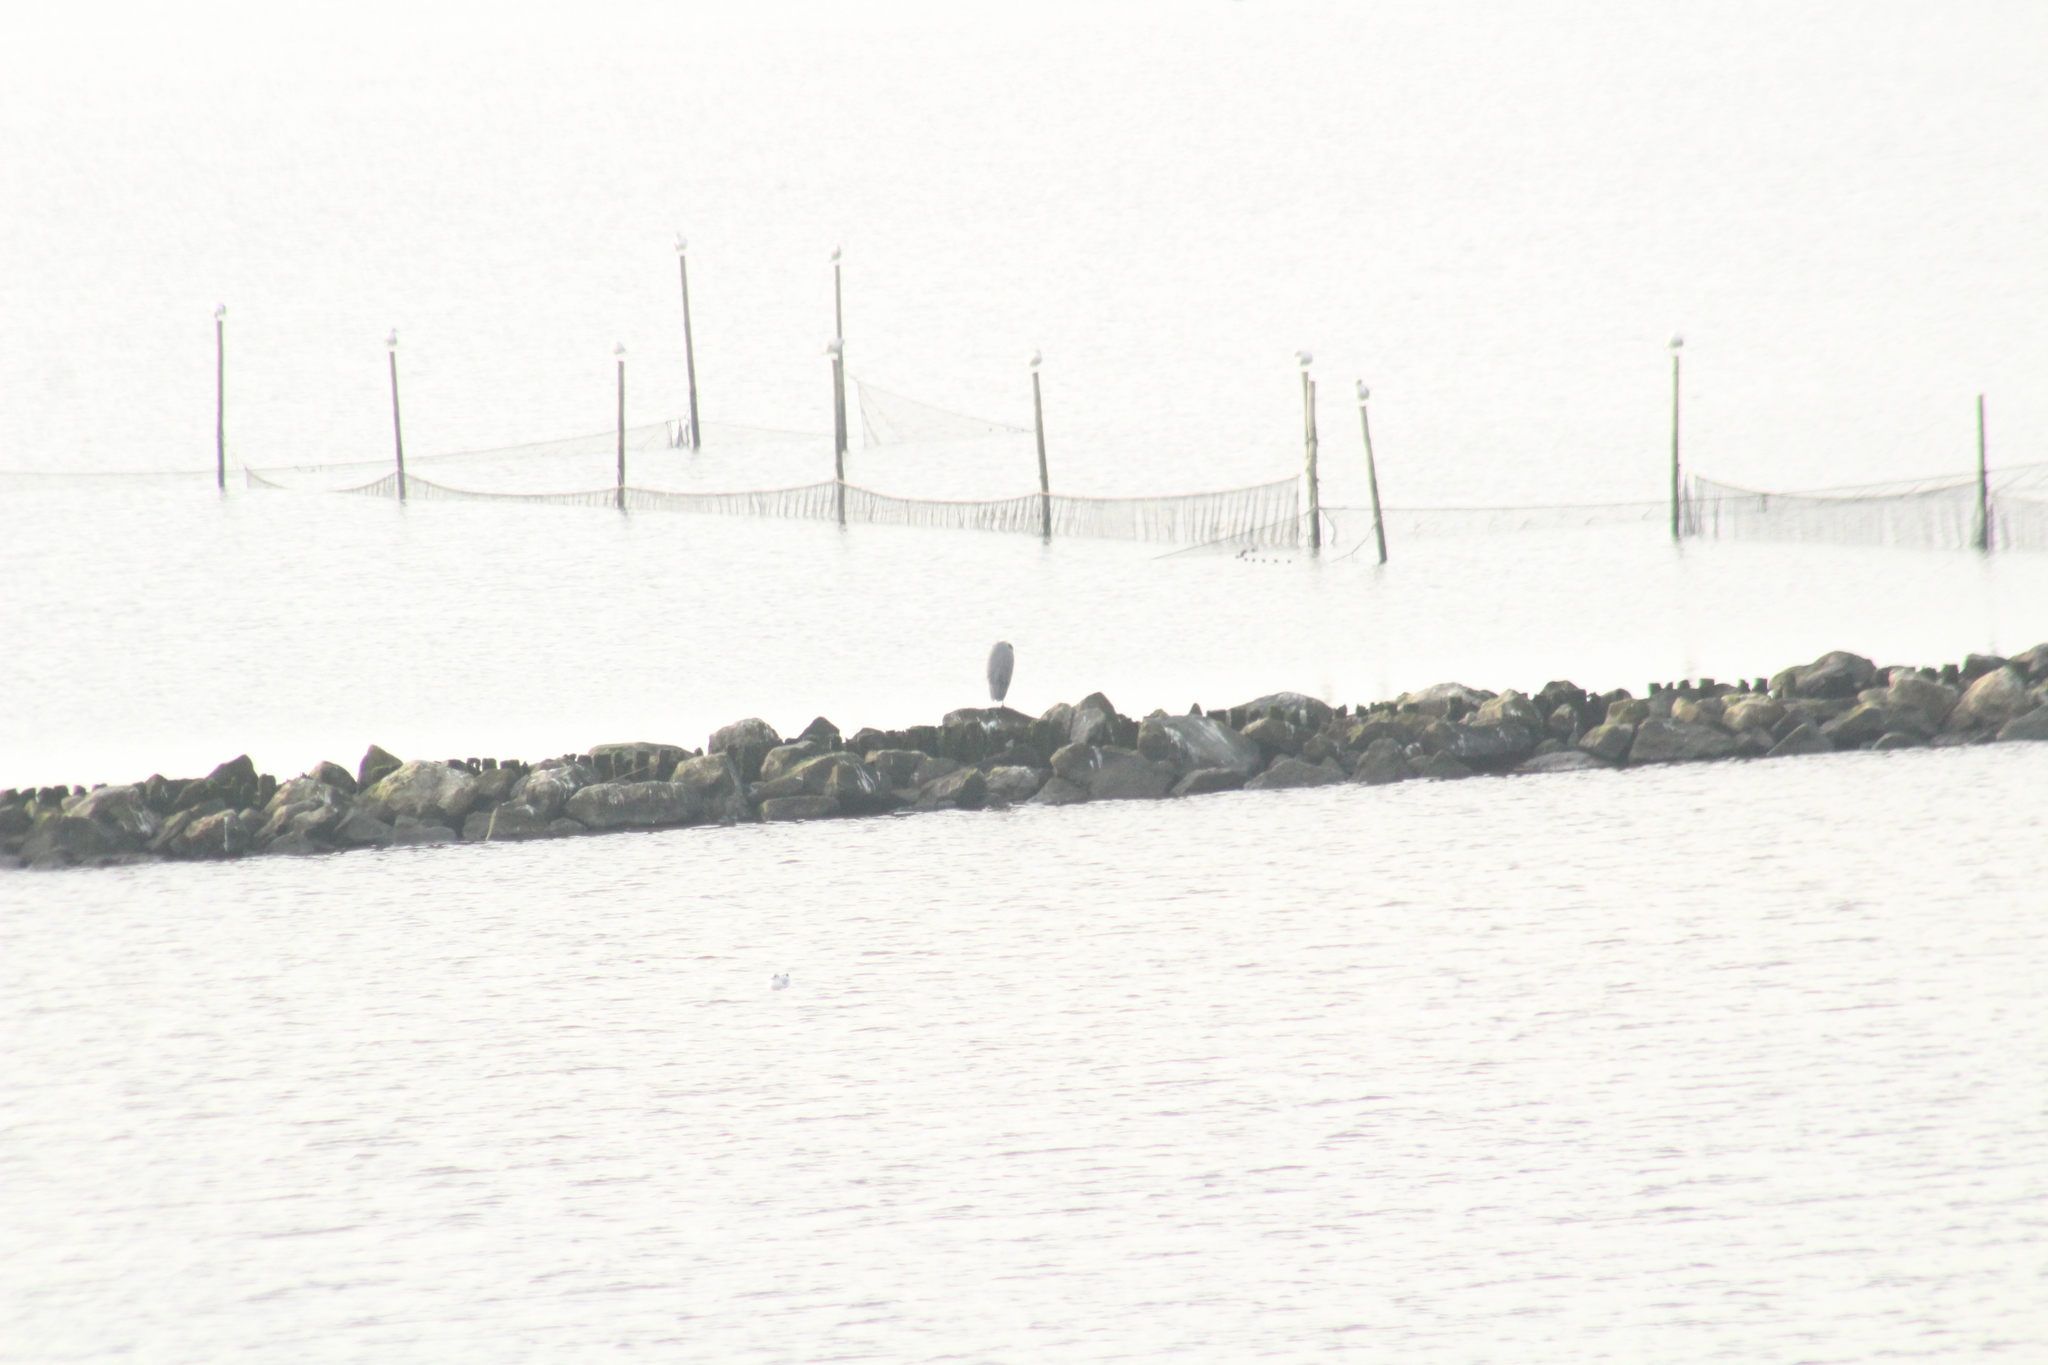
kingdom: Animalia
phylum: Chordata
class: Aves
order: Pelecaniformes
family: Ardeidae
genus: Ardea
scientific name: Ardea cinerea
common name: Grey heron
